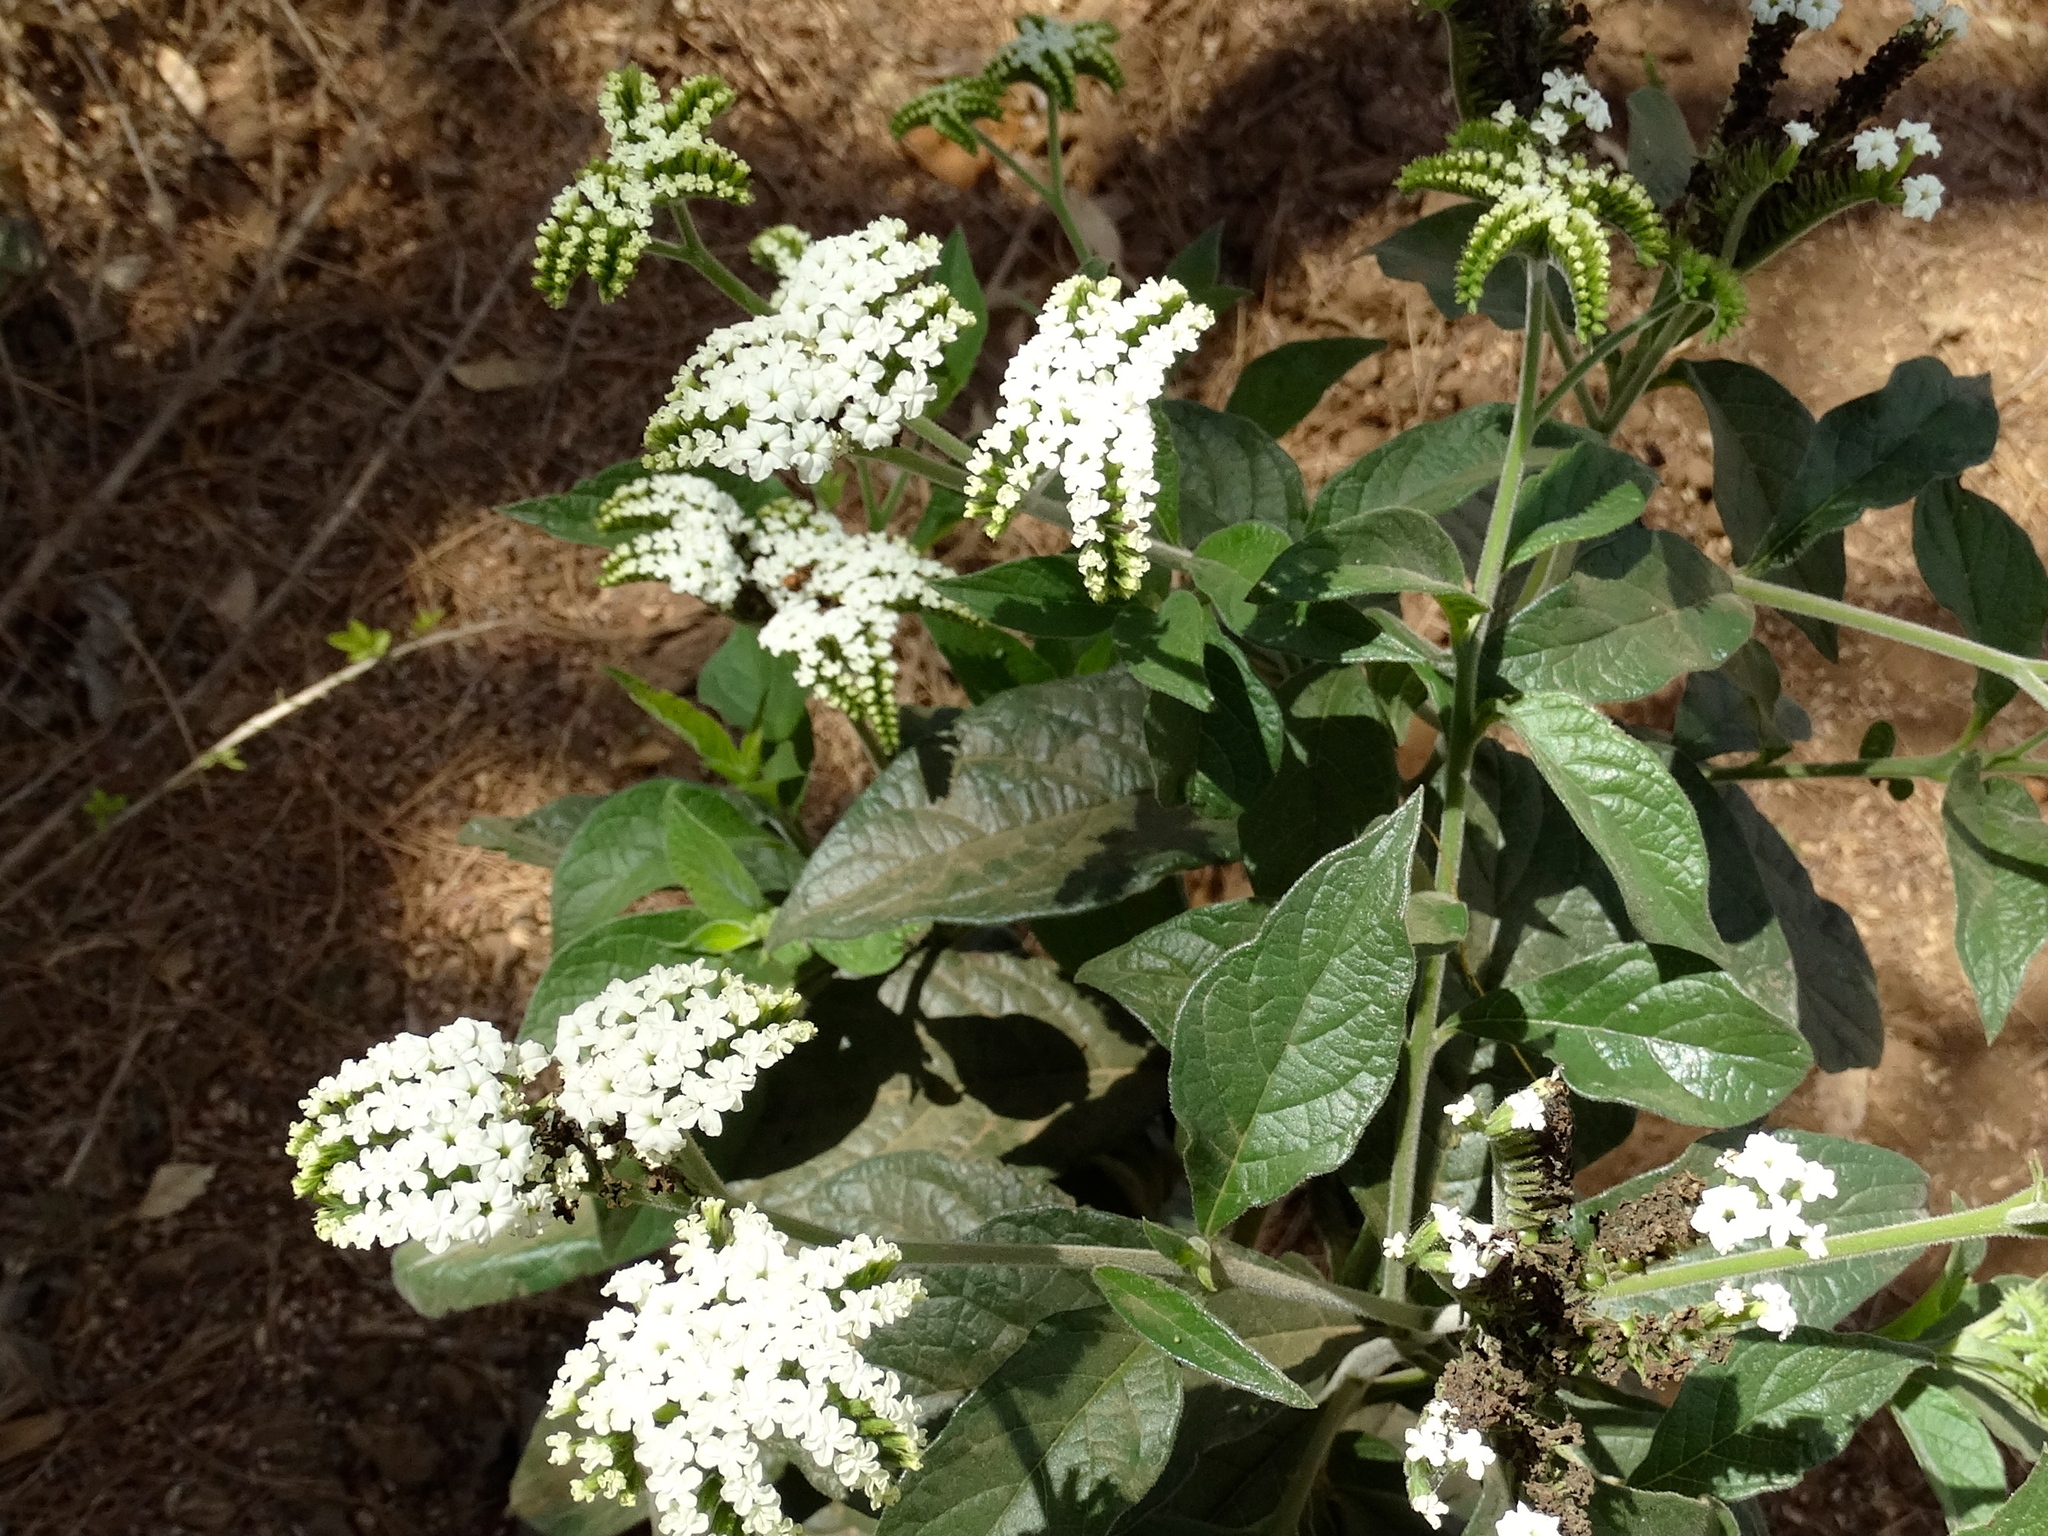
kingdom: Plantae
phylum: Tracheophyta
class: Magnoliopsida
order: Boraginales
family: Heliotropiaceae
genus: Tournefortia
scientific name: Tournefortia mutabilis
